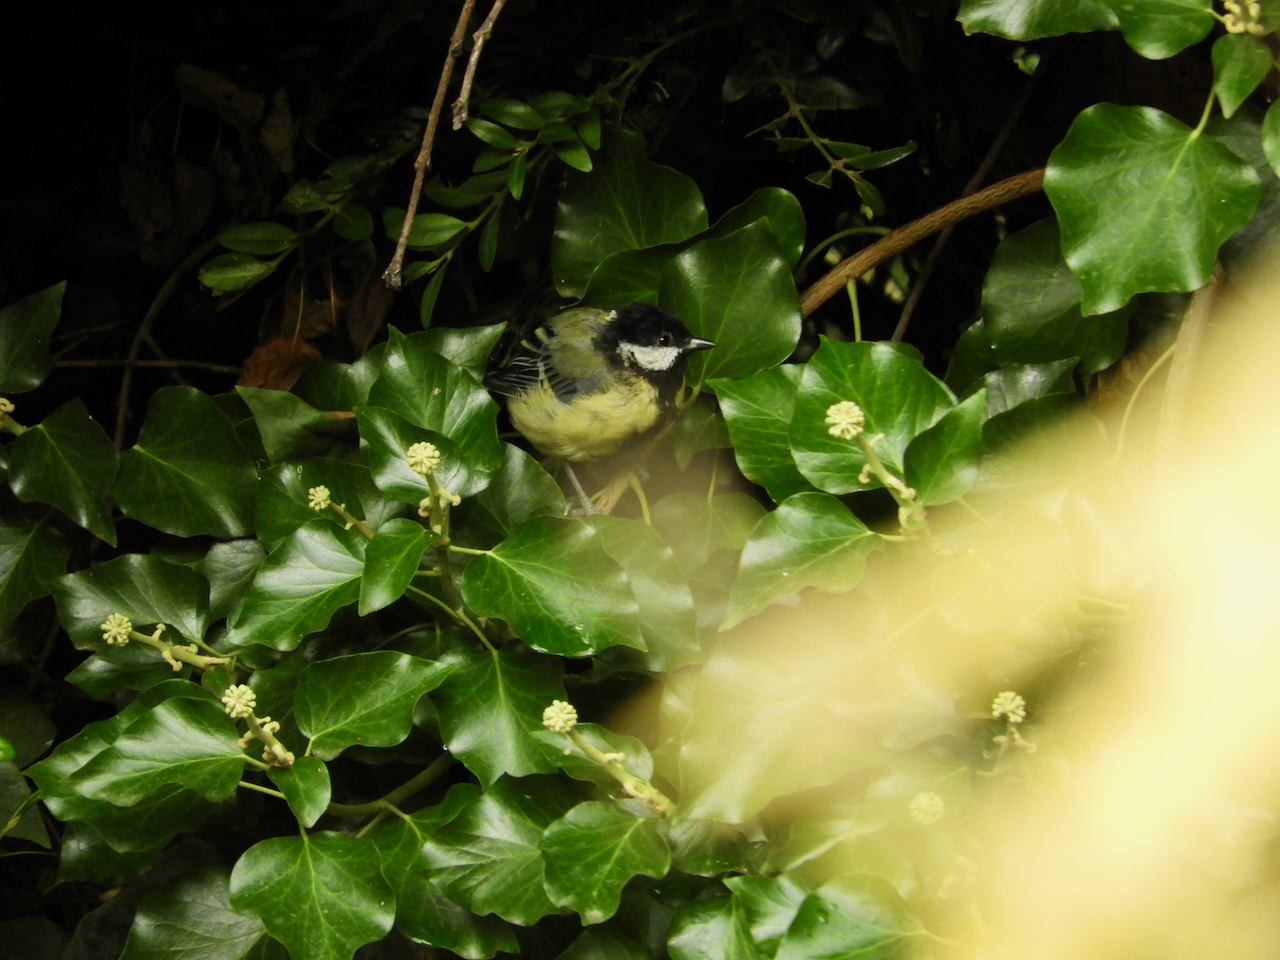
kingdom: Animalia
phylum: Chordata
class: Aves
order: Passeriformes
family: Paridae
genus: Parus
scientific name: Parus major
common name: Great tit
